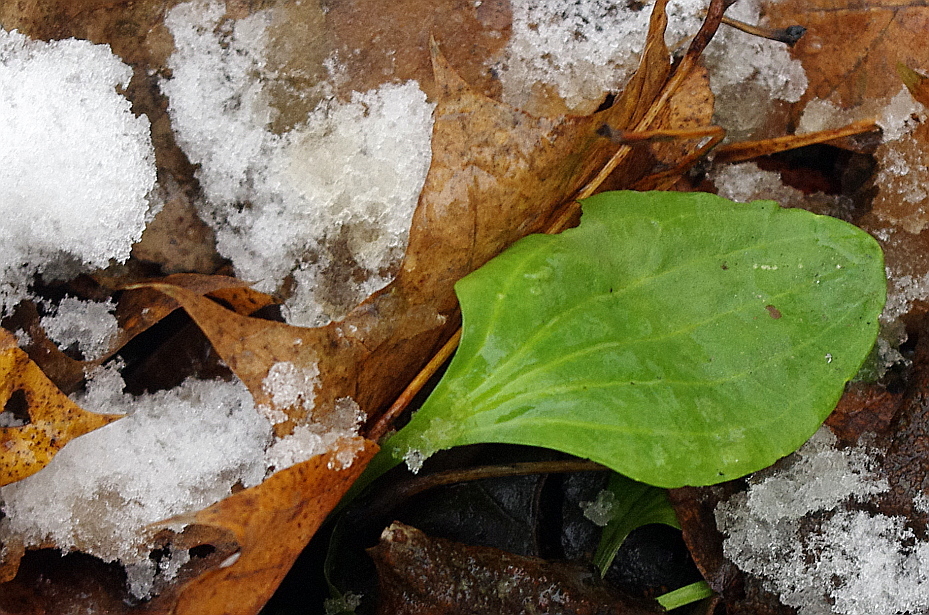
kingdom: Plantae
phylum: Tracheophyta
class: Magnoliopsida
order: Lamiales
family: Plantaginaceae
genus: Plantago
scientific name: Plantago major
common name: Common plantain
